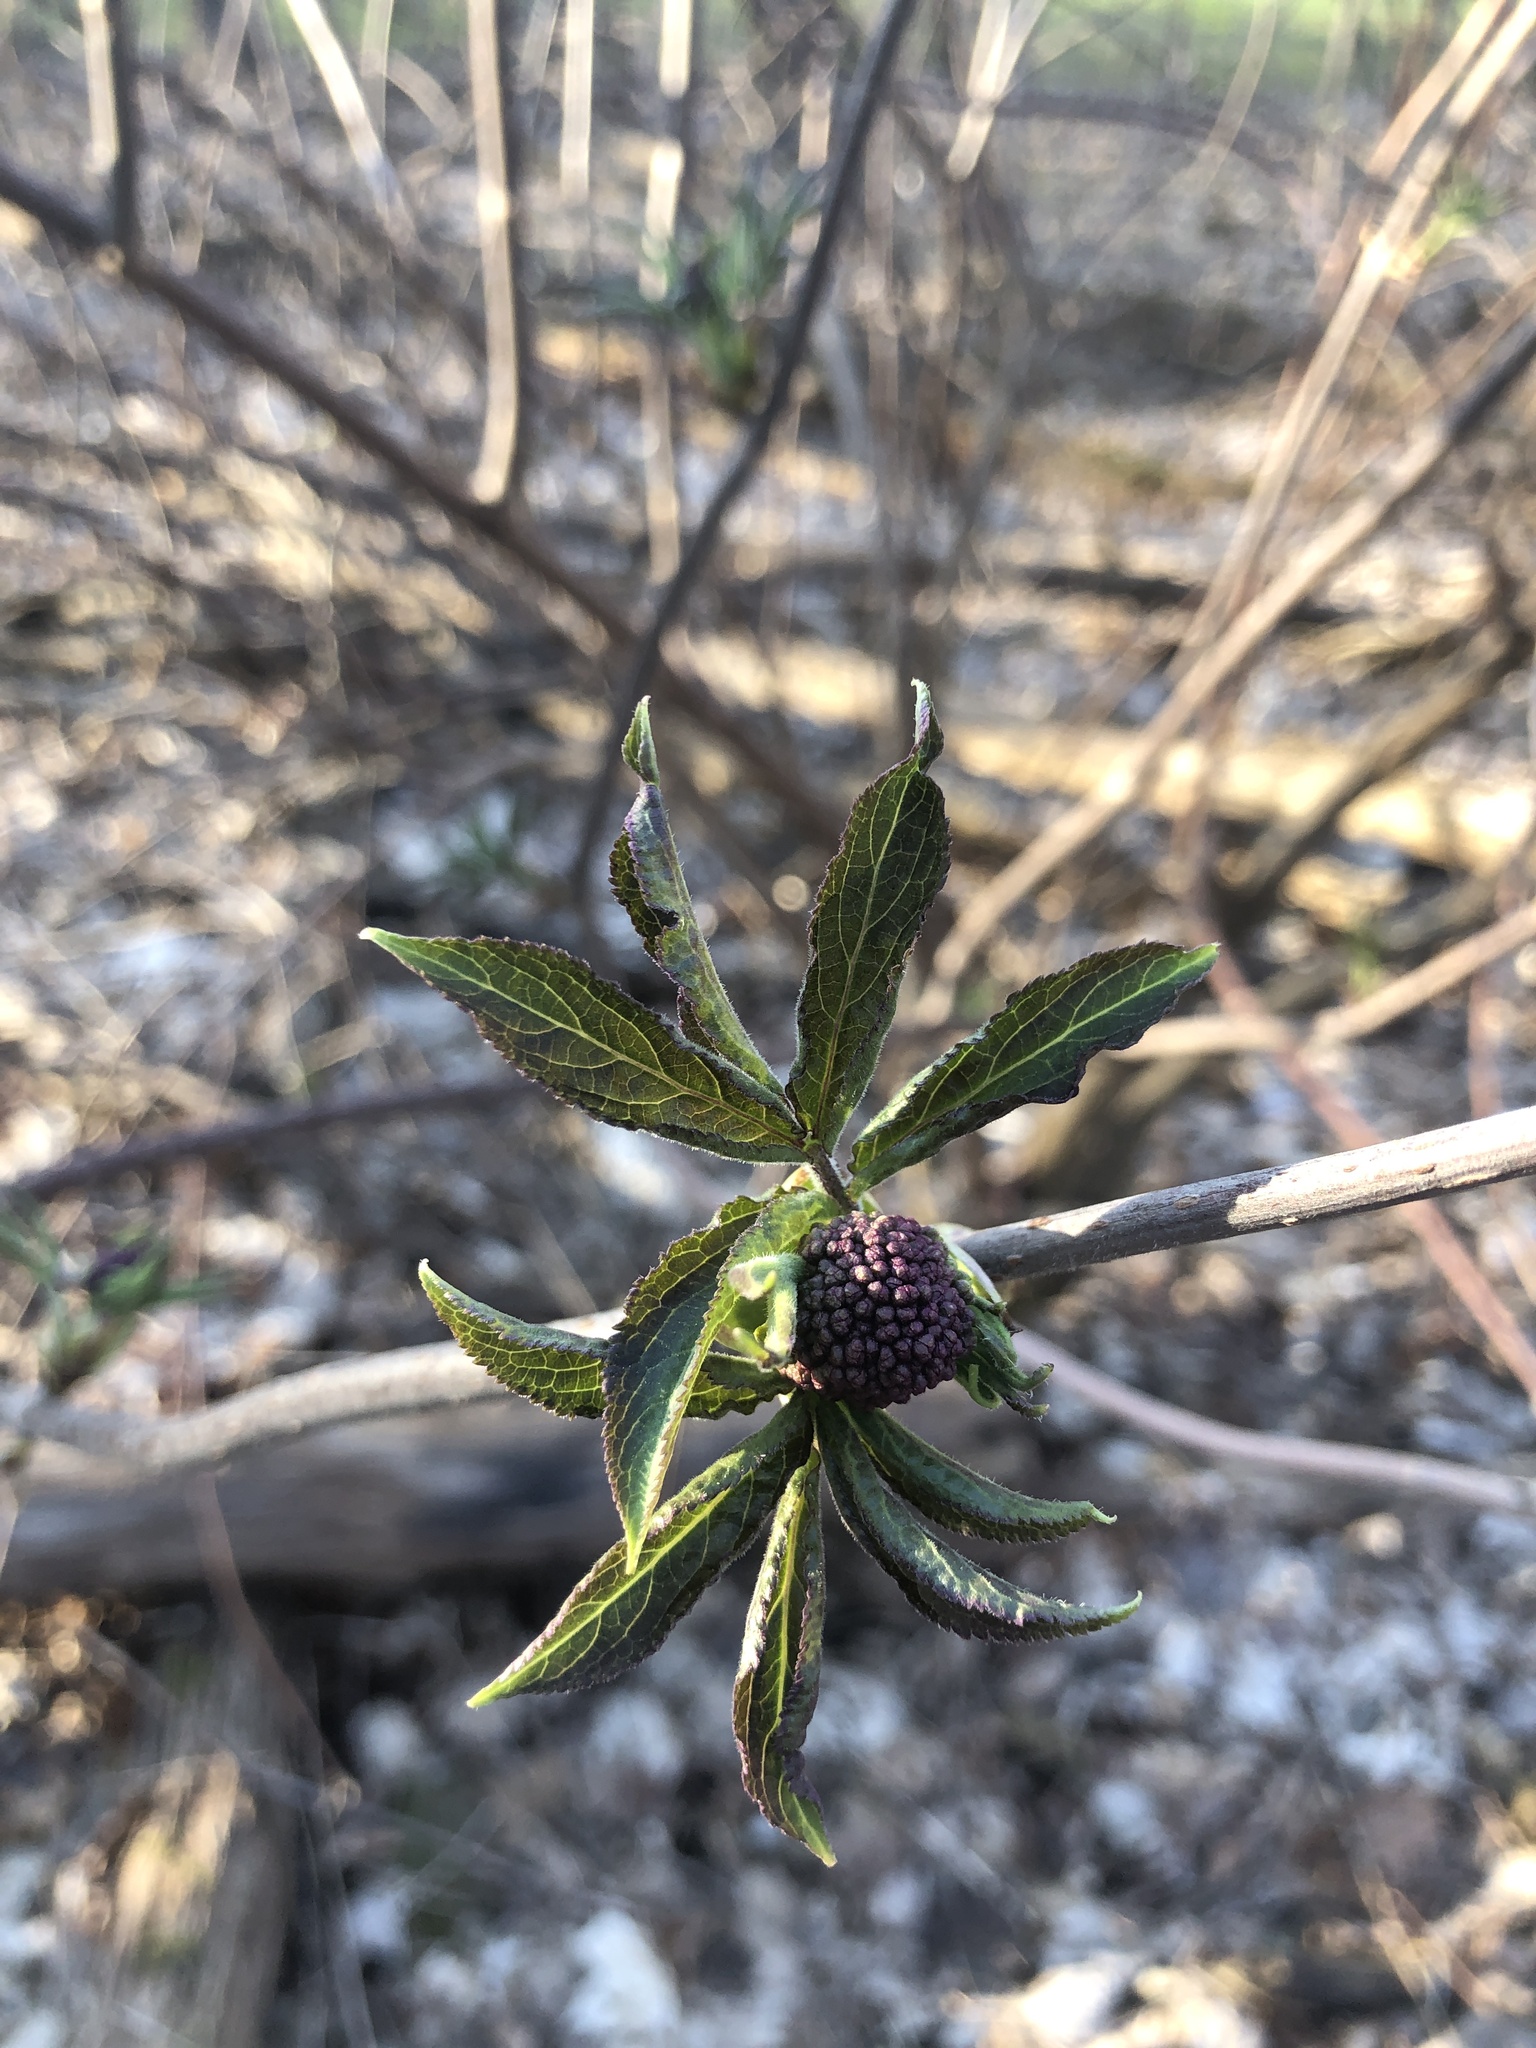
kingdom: Plantae
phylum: Tracheophyta
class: Magnoliopsida
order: Dipsacales
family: Viburnaceae
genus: Sambucus
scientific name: Sambucus racemosa
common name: Red-berried elder
